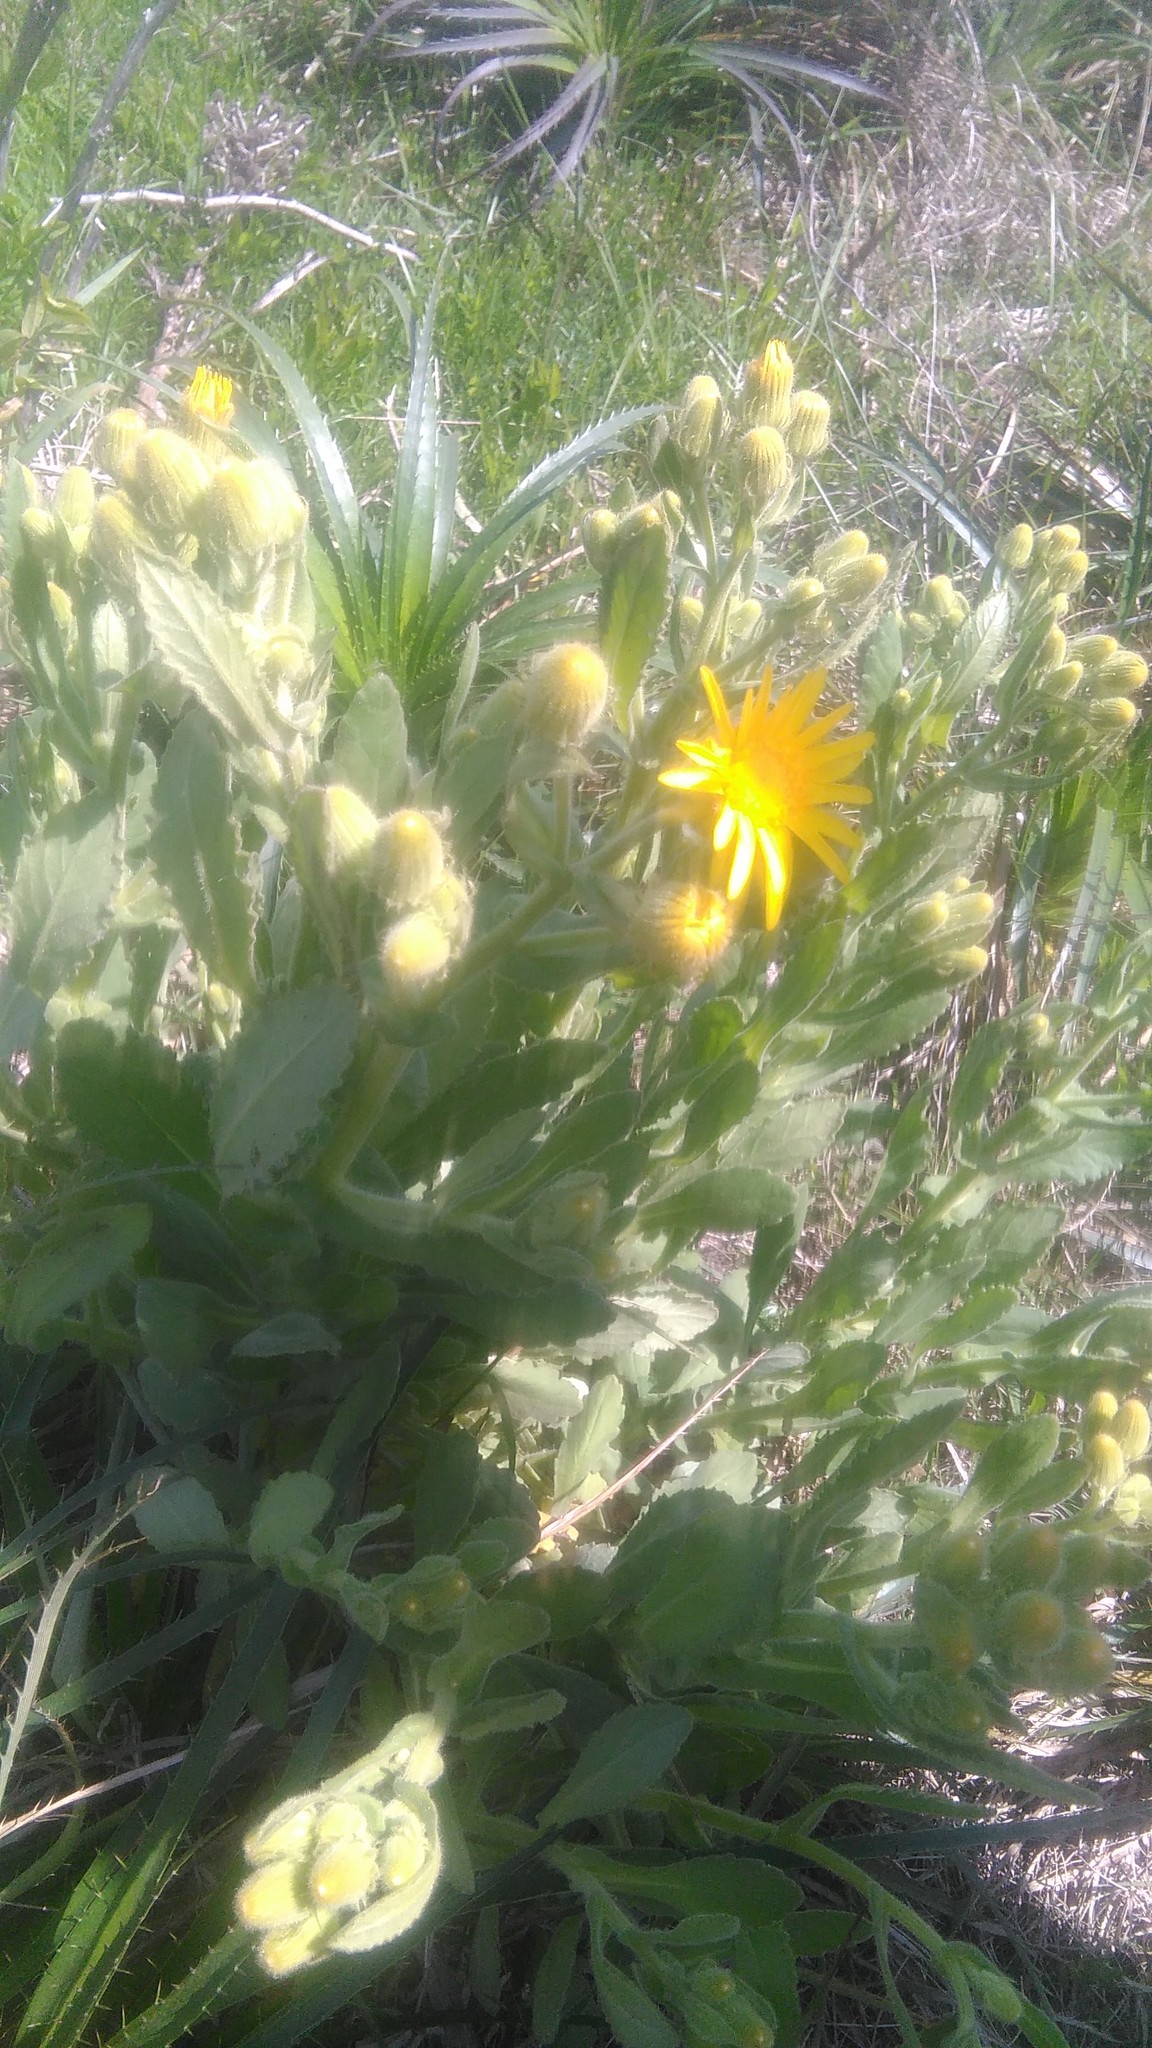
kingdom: Plantae
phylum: Tracheophyta
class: Magnoliopsida
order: Asterales
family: Asteraceae
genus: Senecio
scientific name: Senecio selloi
